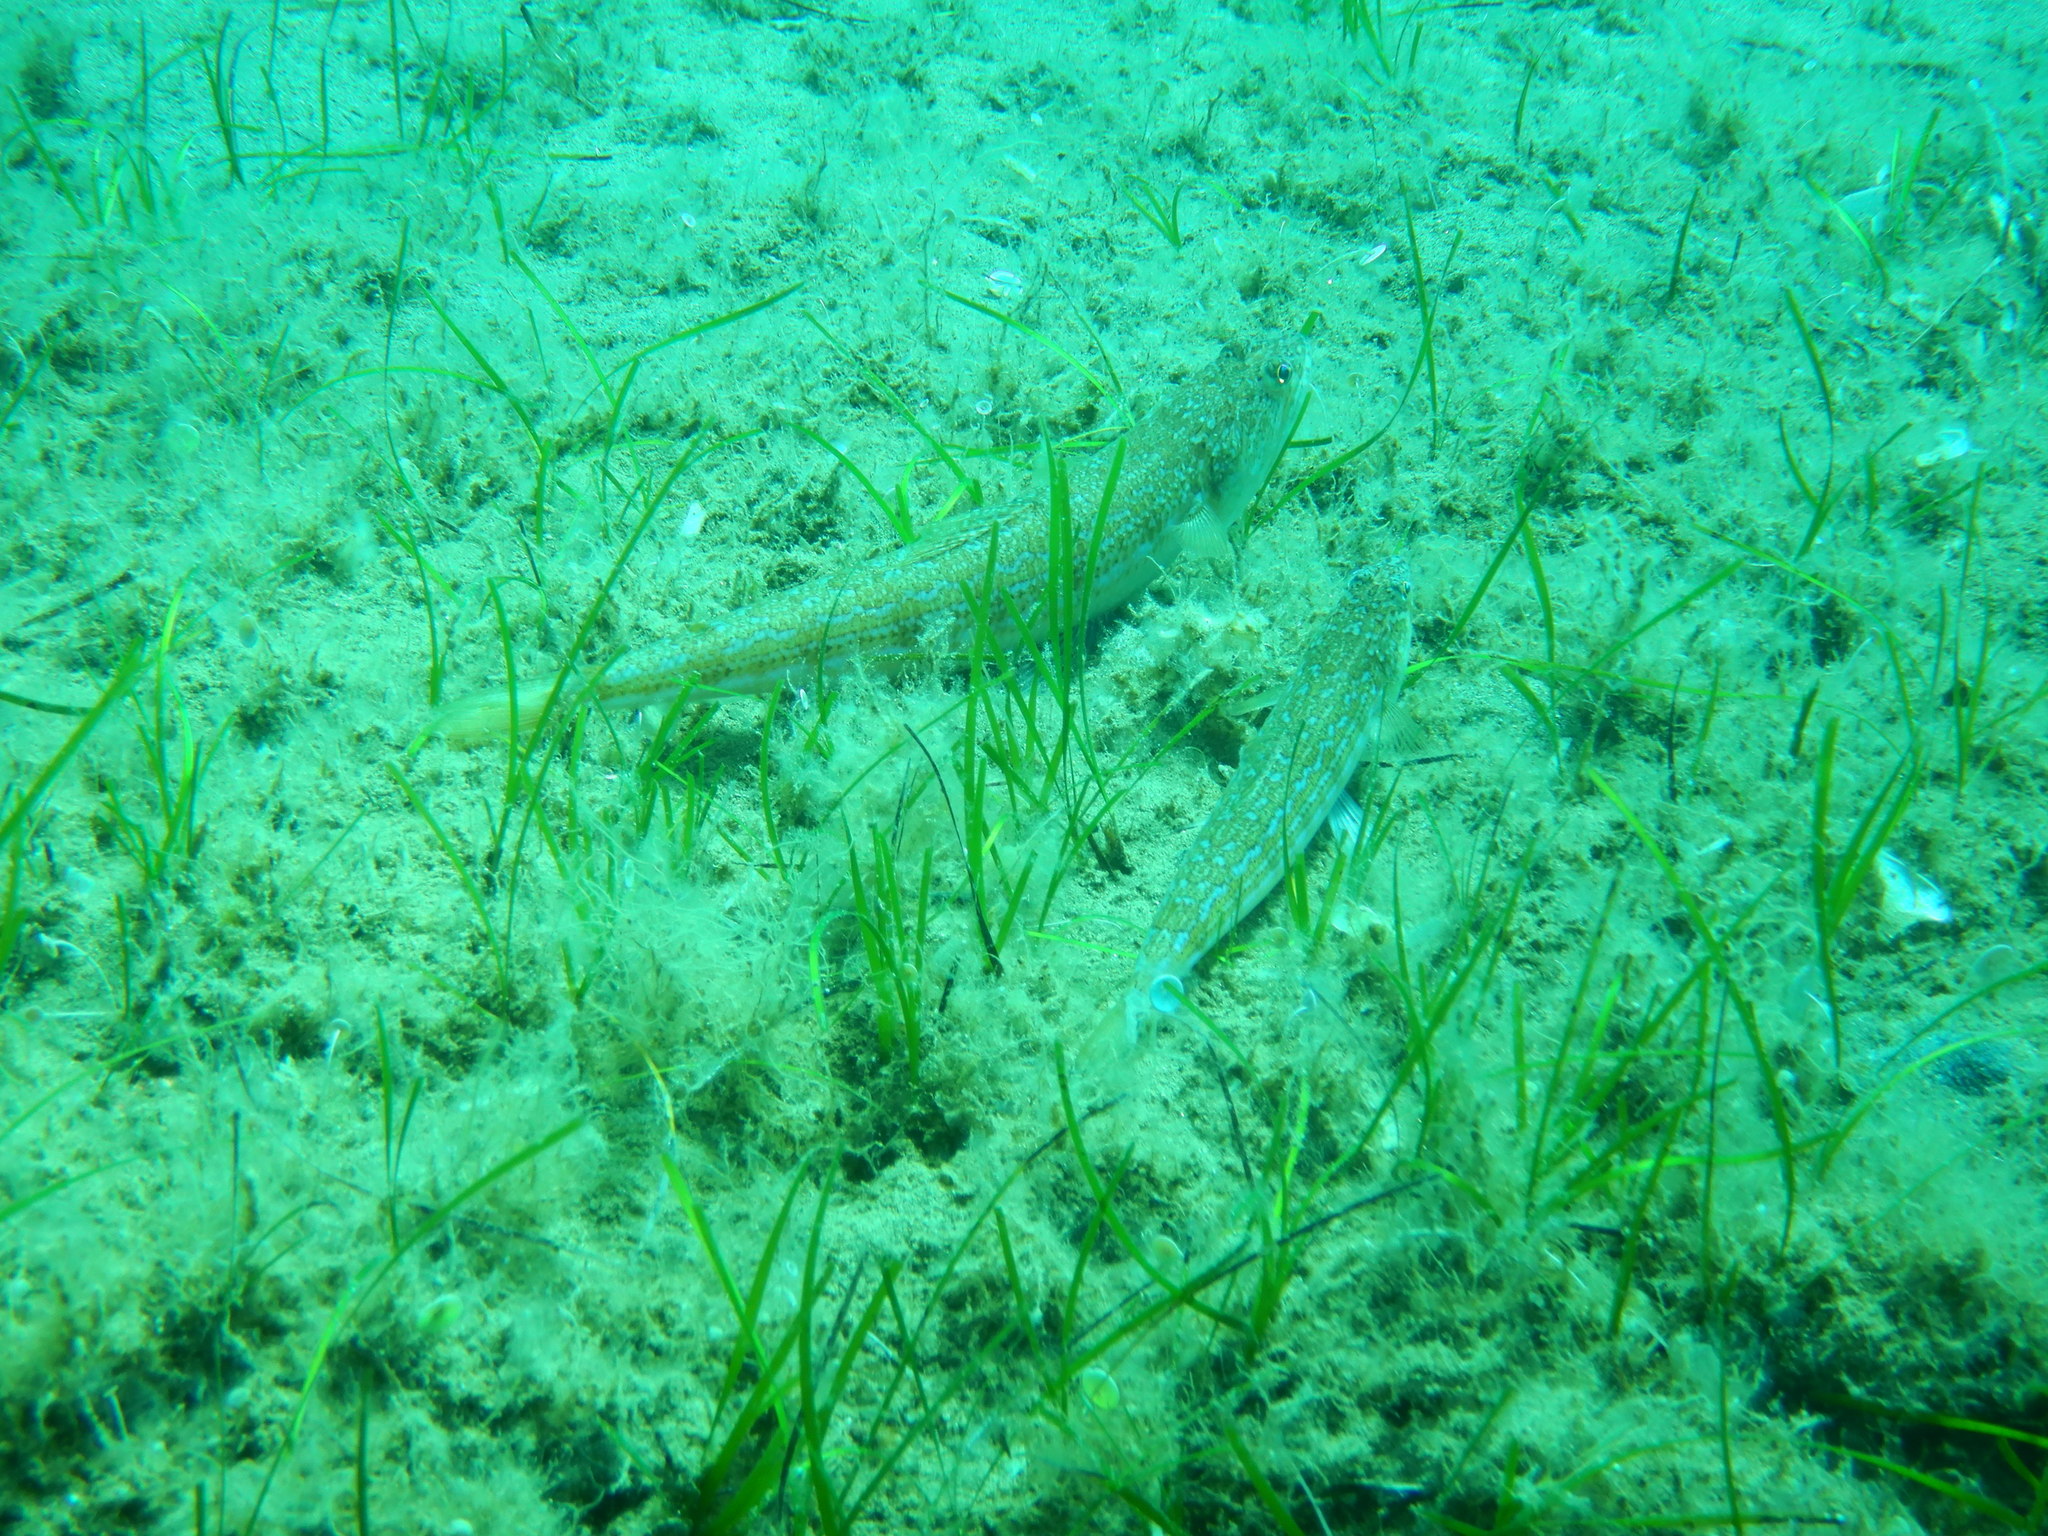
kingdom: Animalia
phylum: Chordata
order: Aulopiformes
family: Synodontidae
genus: Synodus
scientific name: Synodus saurus
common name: Atlantic lizardfish
